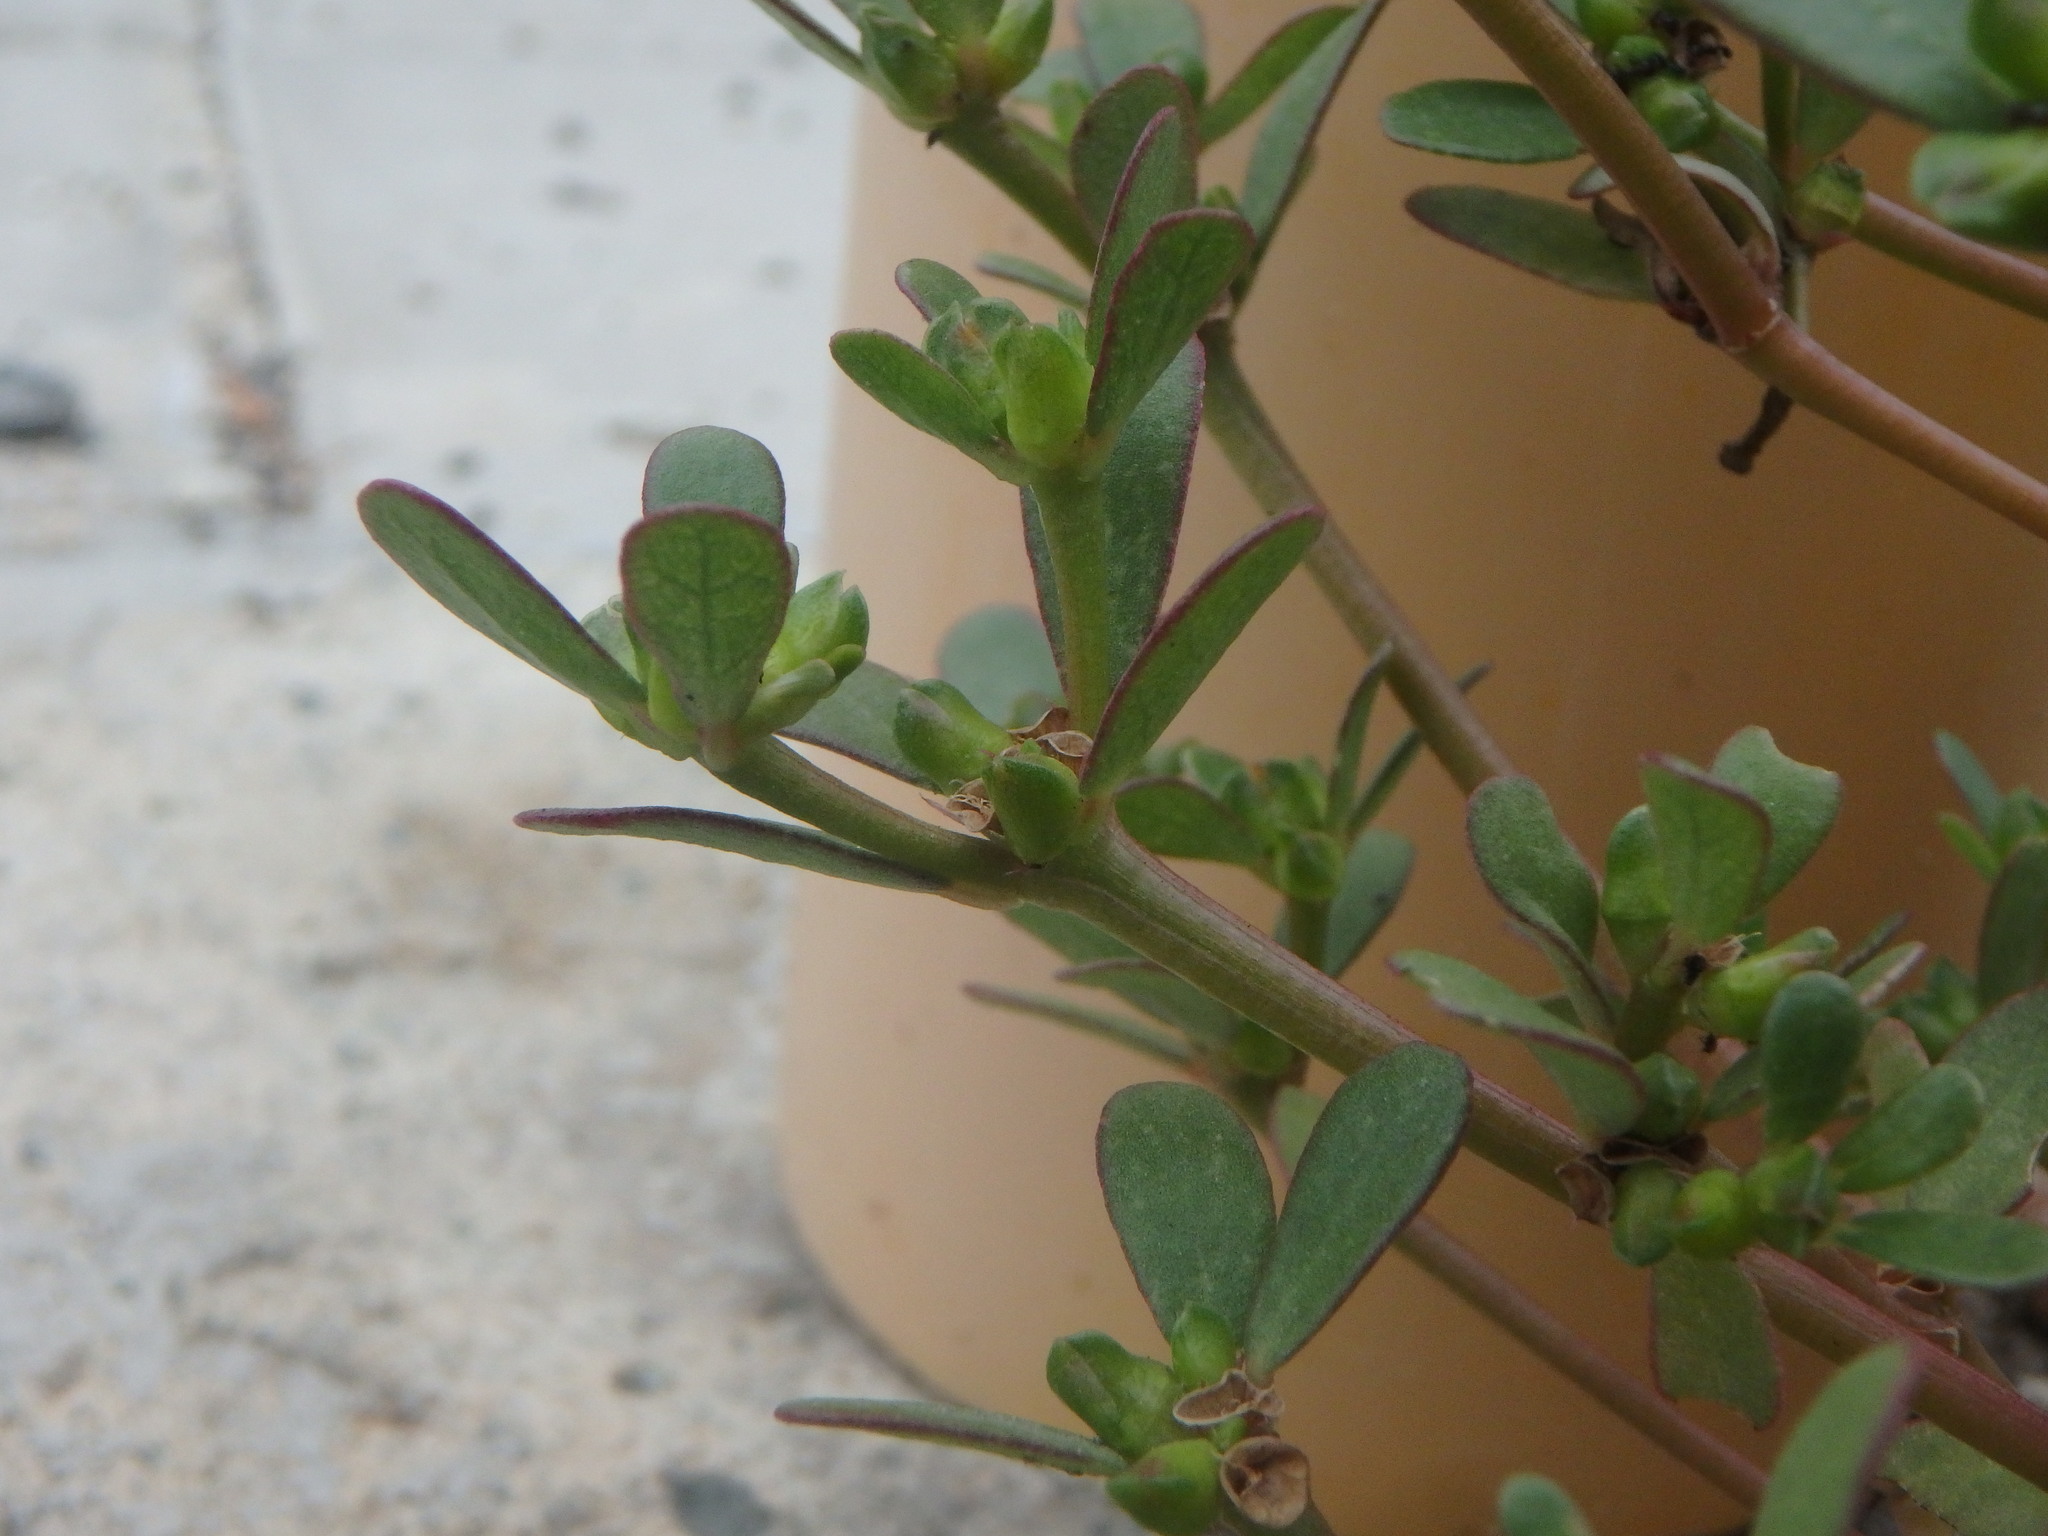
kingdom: Plantae
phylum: Tracheophyta
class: Magnoliopsida
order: Caryophyllales
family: Portulacaceae
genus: Portulaca
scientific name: Portulaca oleracea
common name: Common purslane
